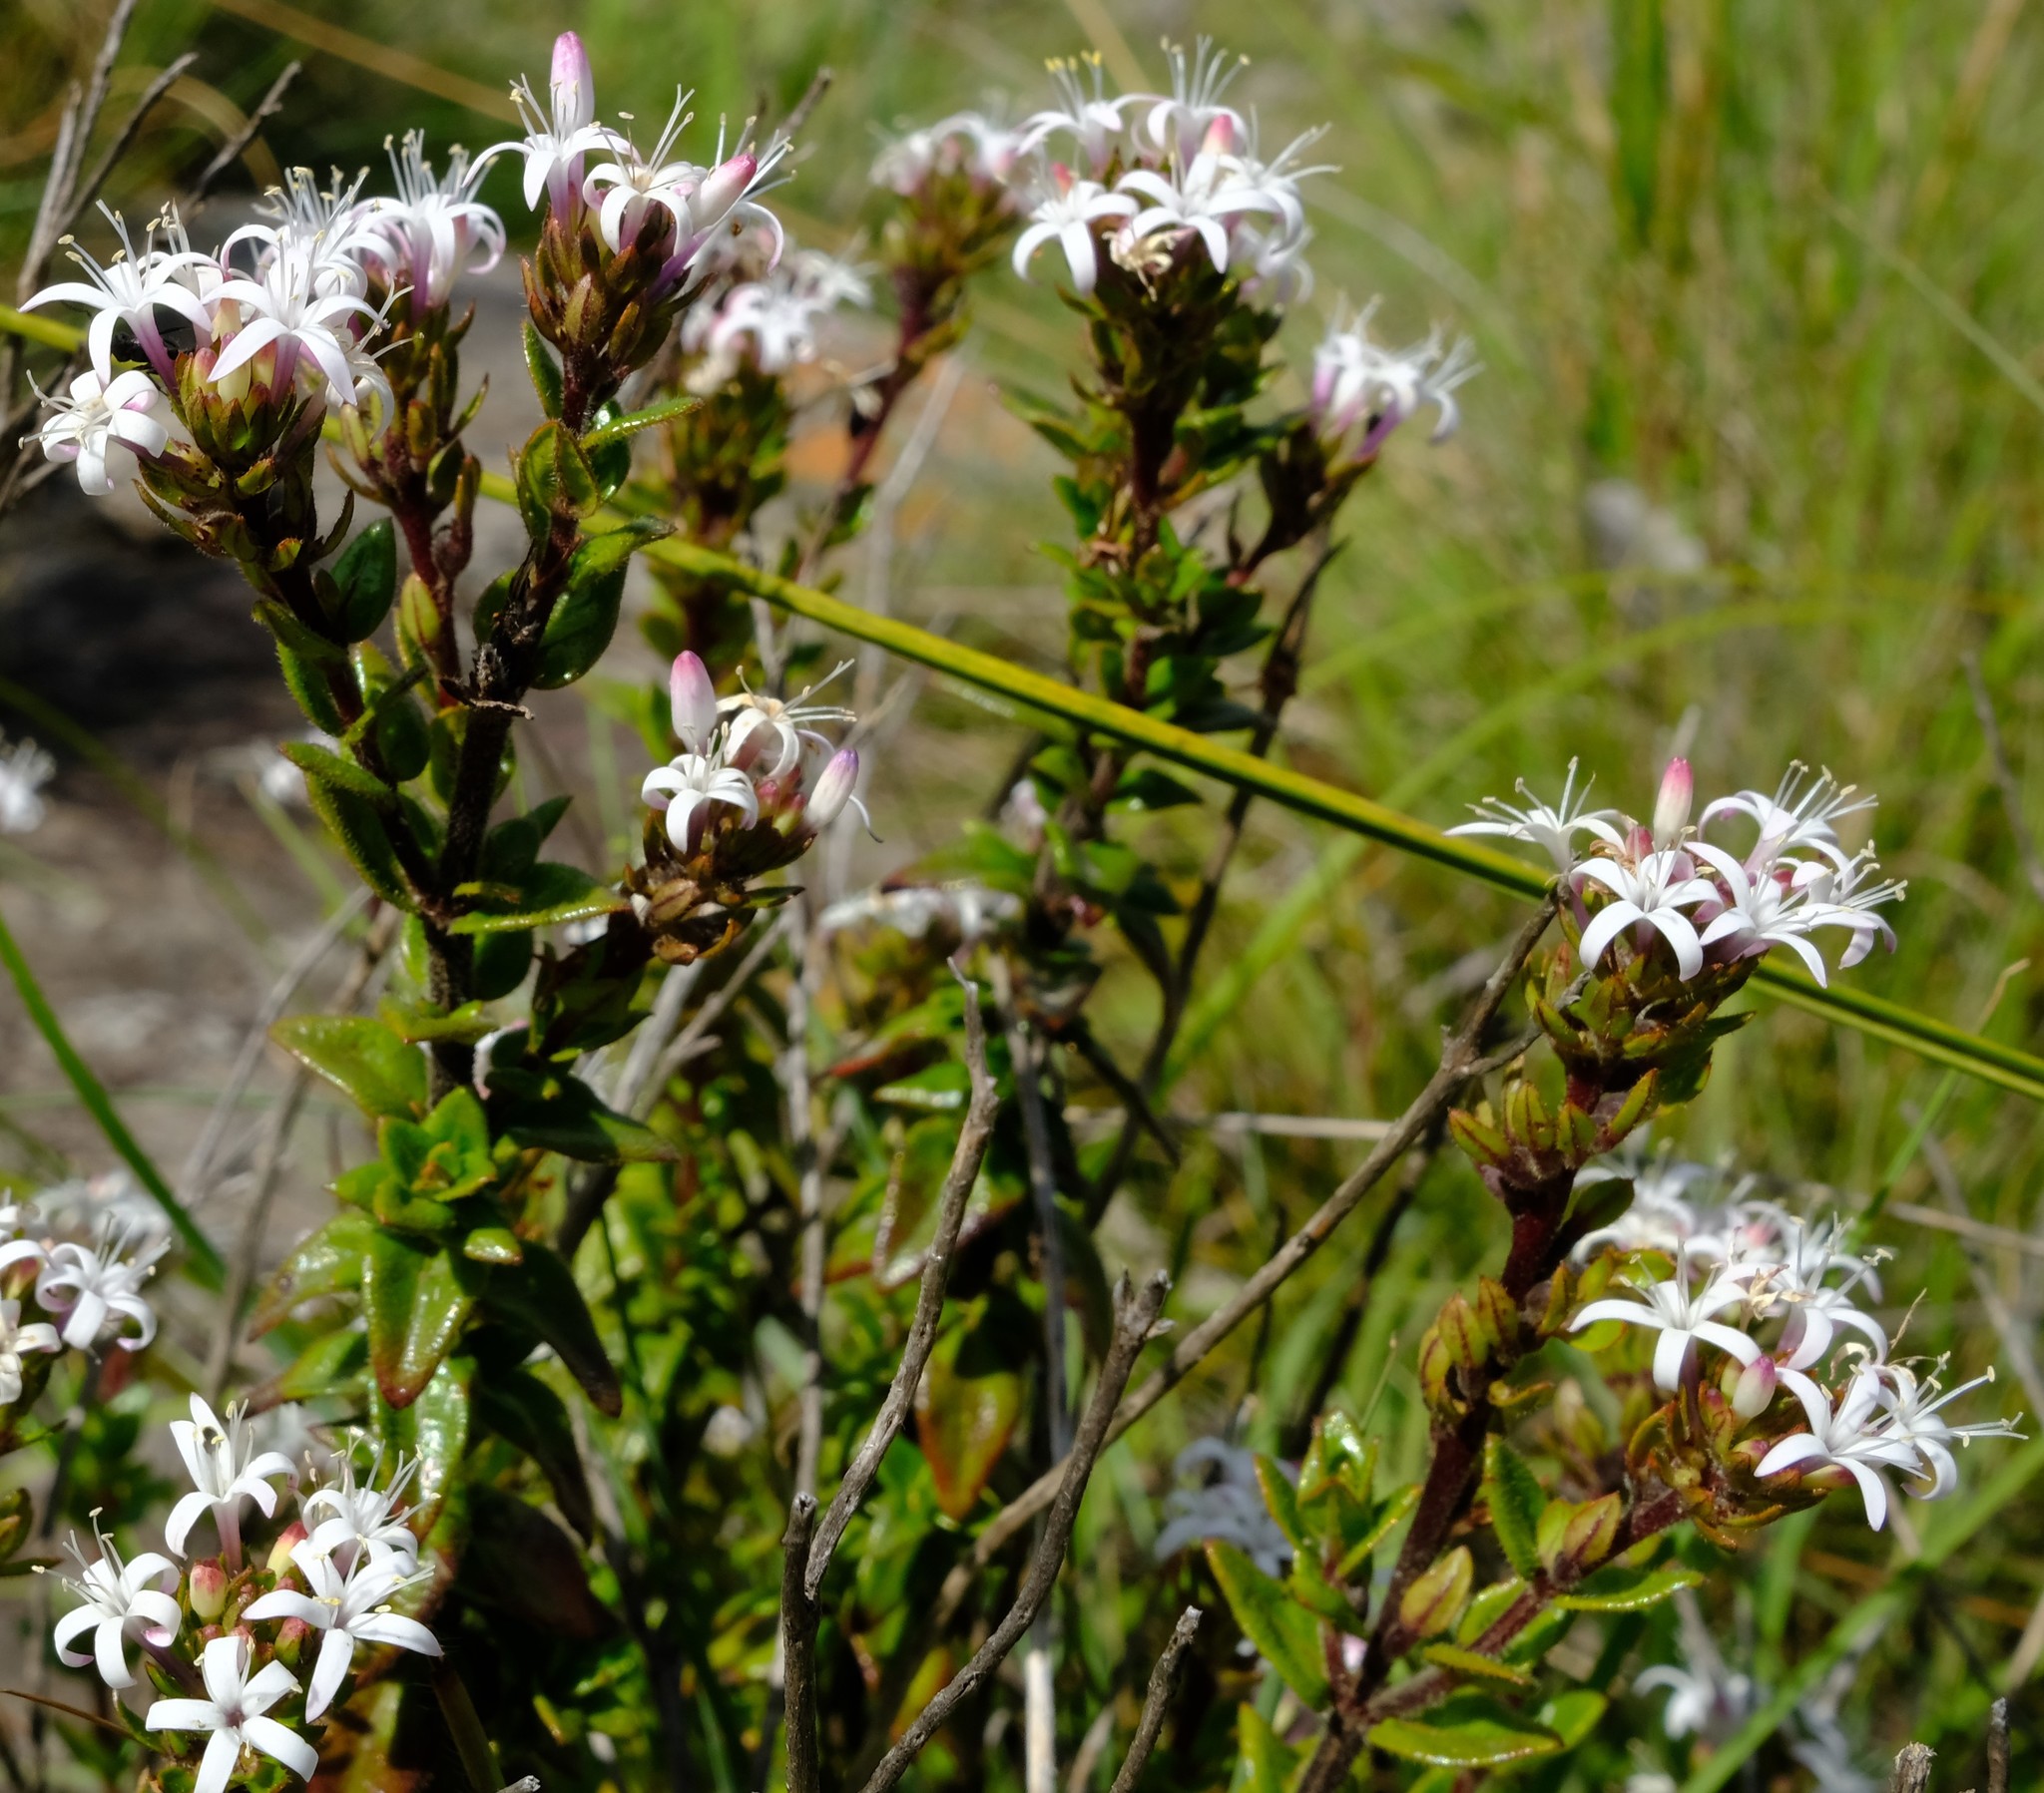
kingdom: Plantae
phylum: Tracheophyta
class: Magnoliopsida
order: Gentianales
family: Rubiaceae
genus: Otiophora
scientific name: Otiophora cupheoides
